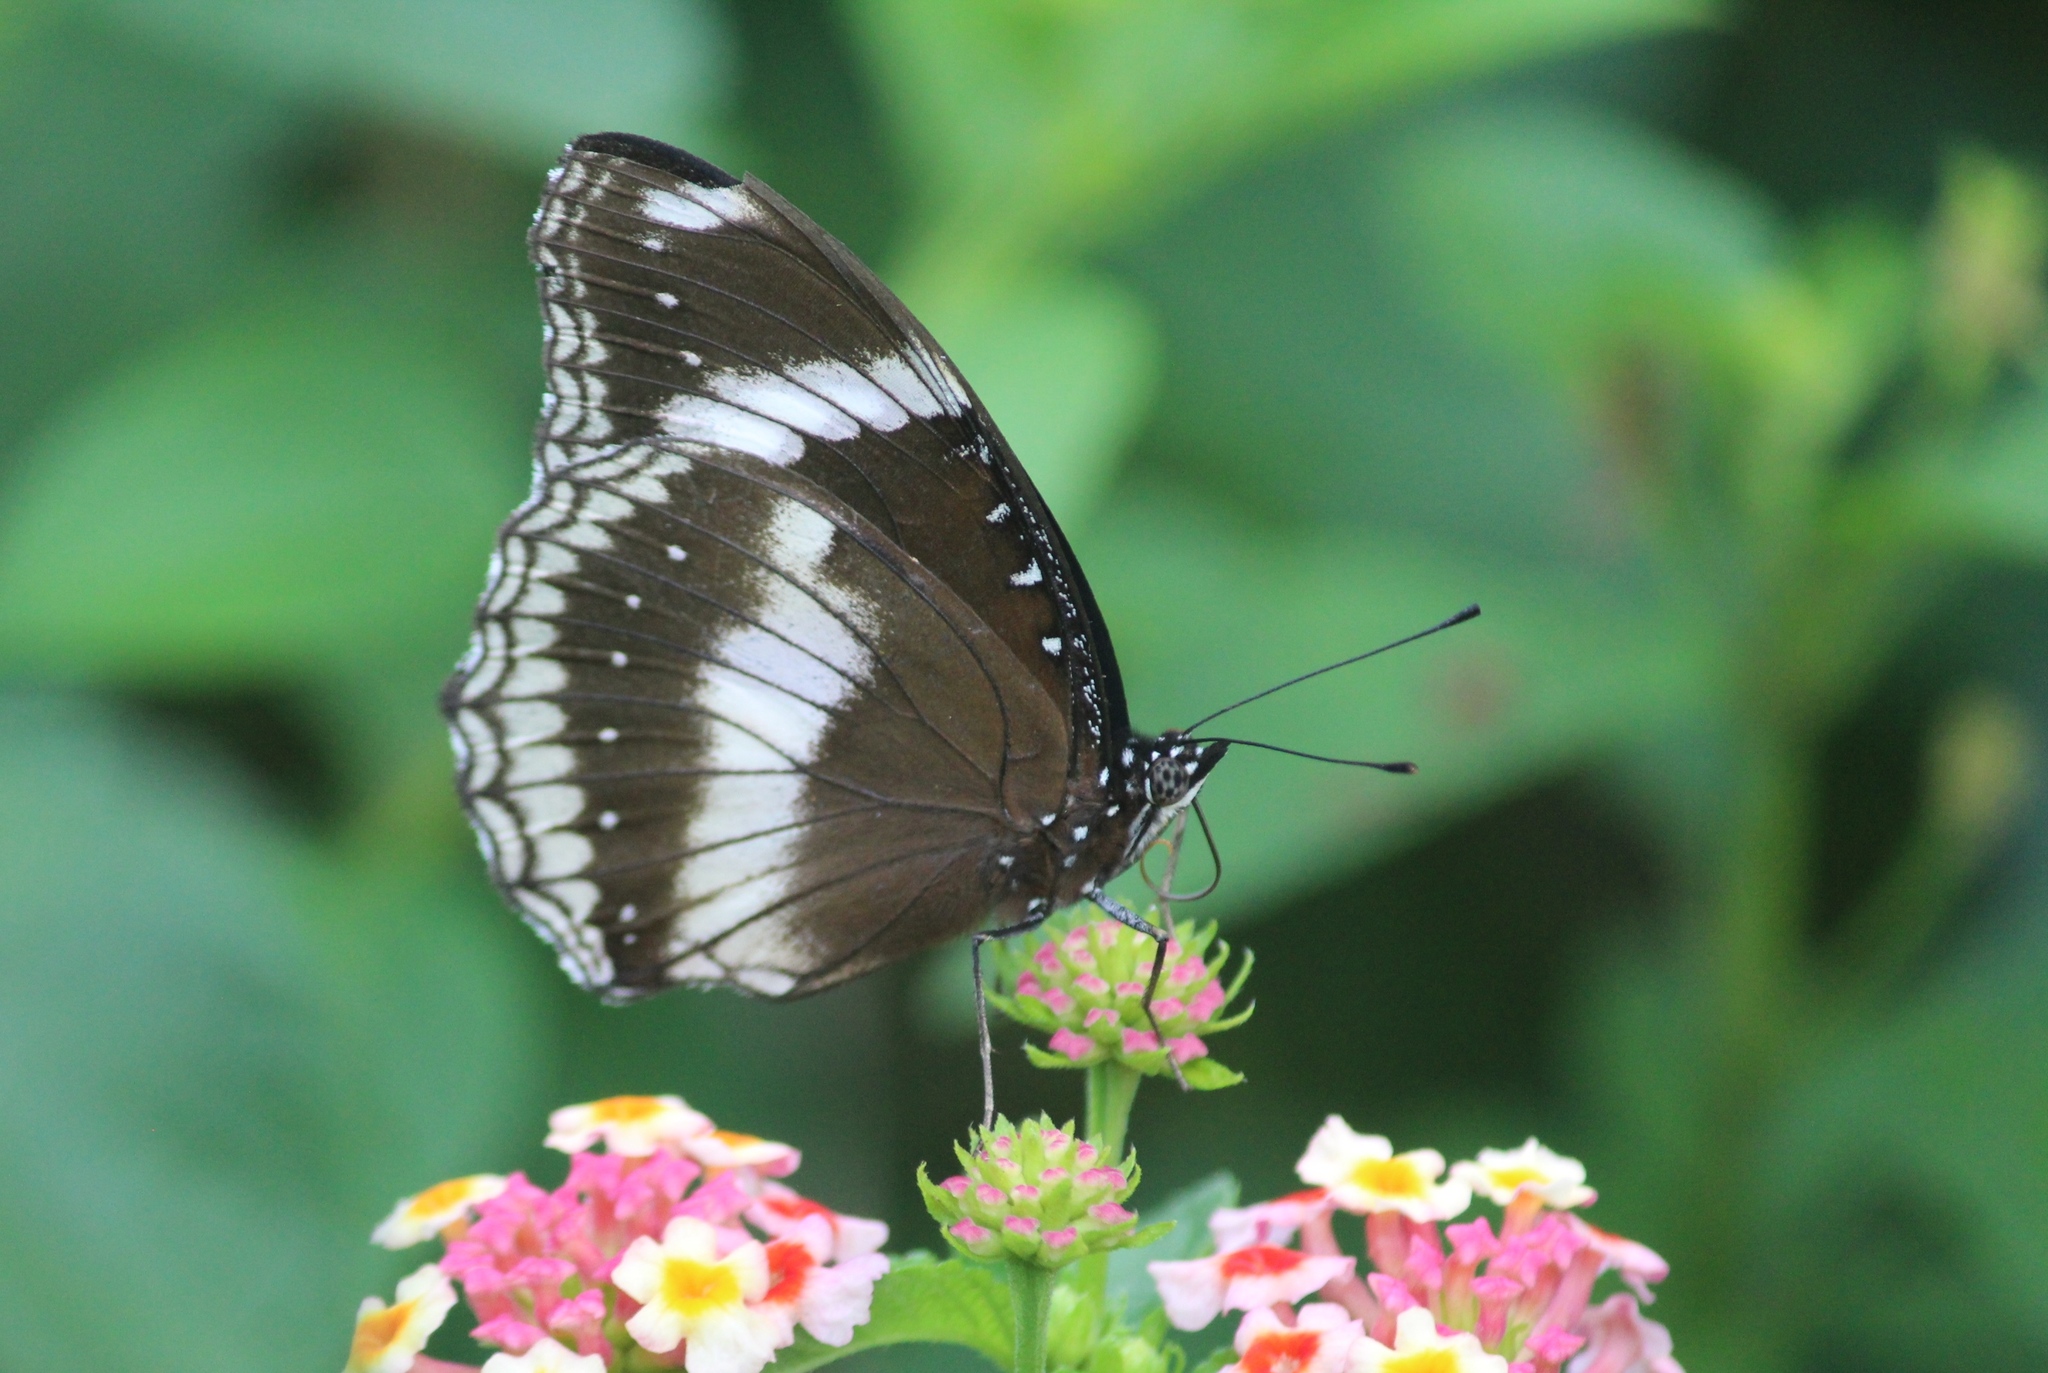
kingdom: Animalia
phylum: Arthropoda
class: Insecta
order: Lepidoptera
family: Nymphalidae
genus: Hypolimnas
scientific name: Hypolimnas bolina
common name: Great eggfly
